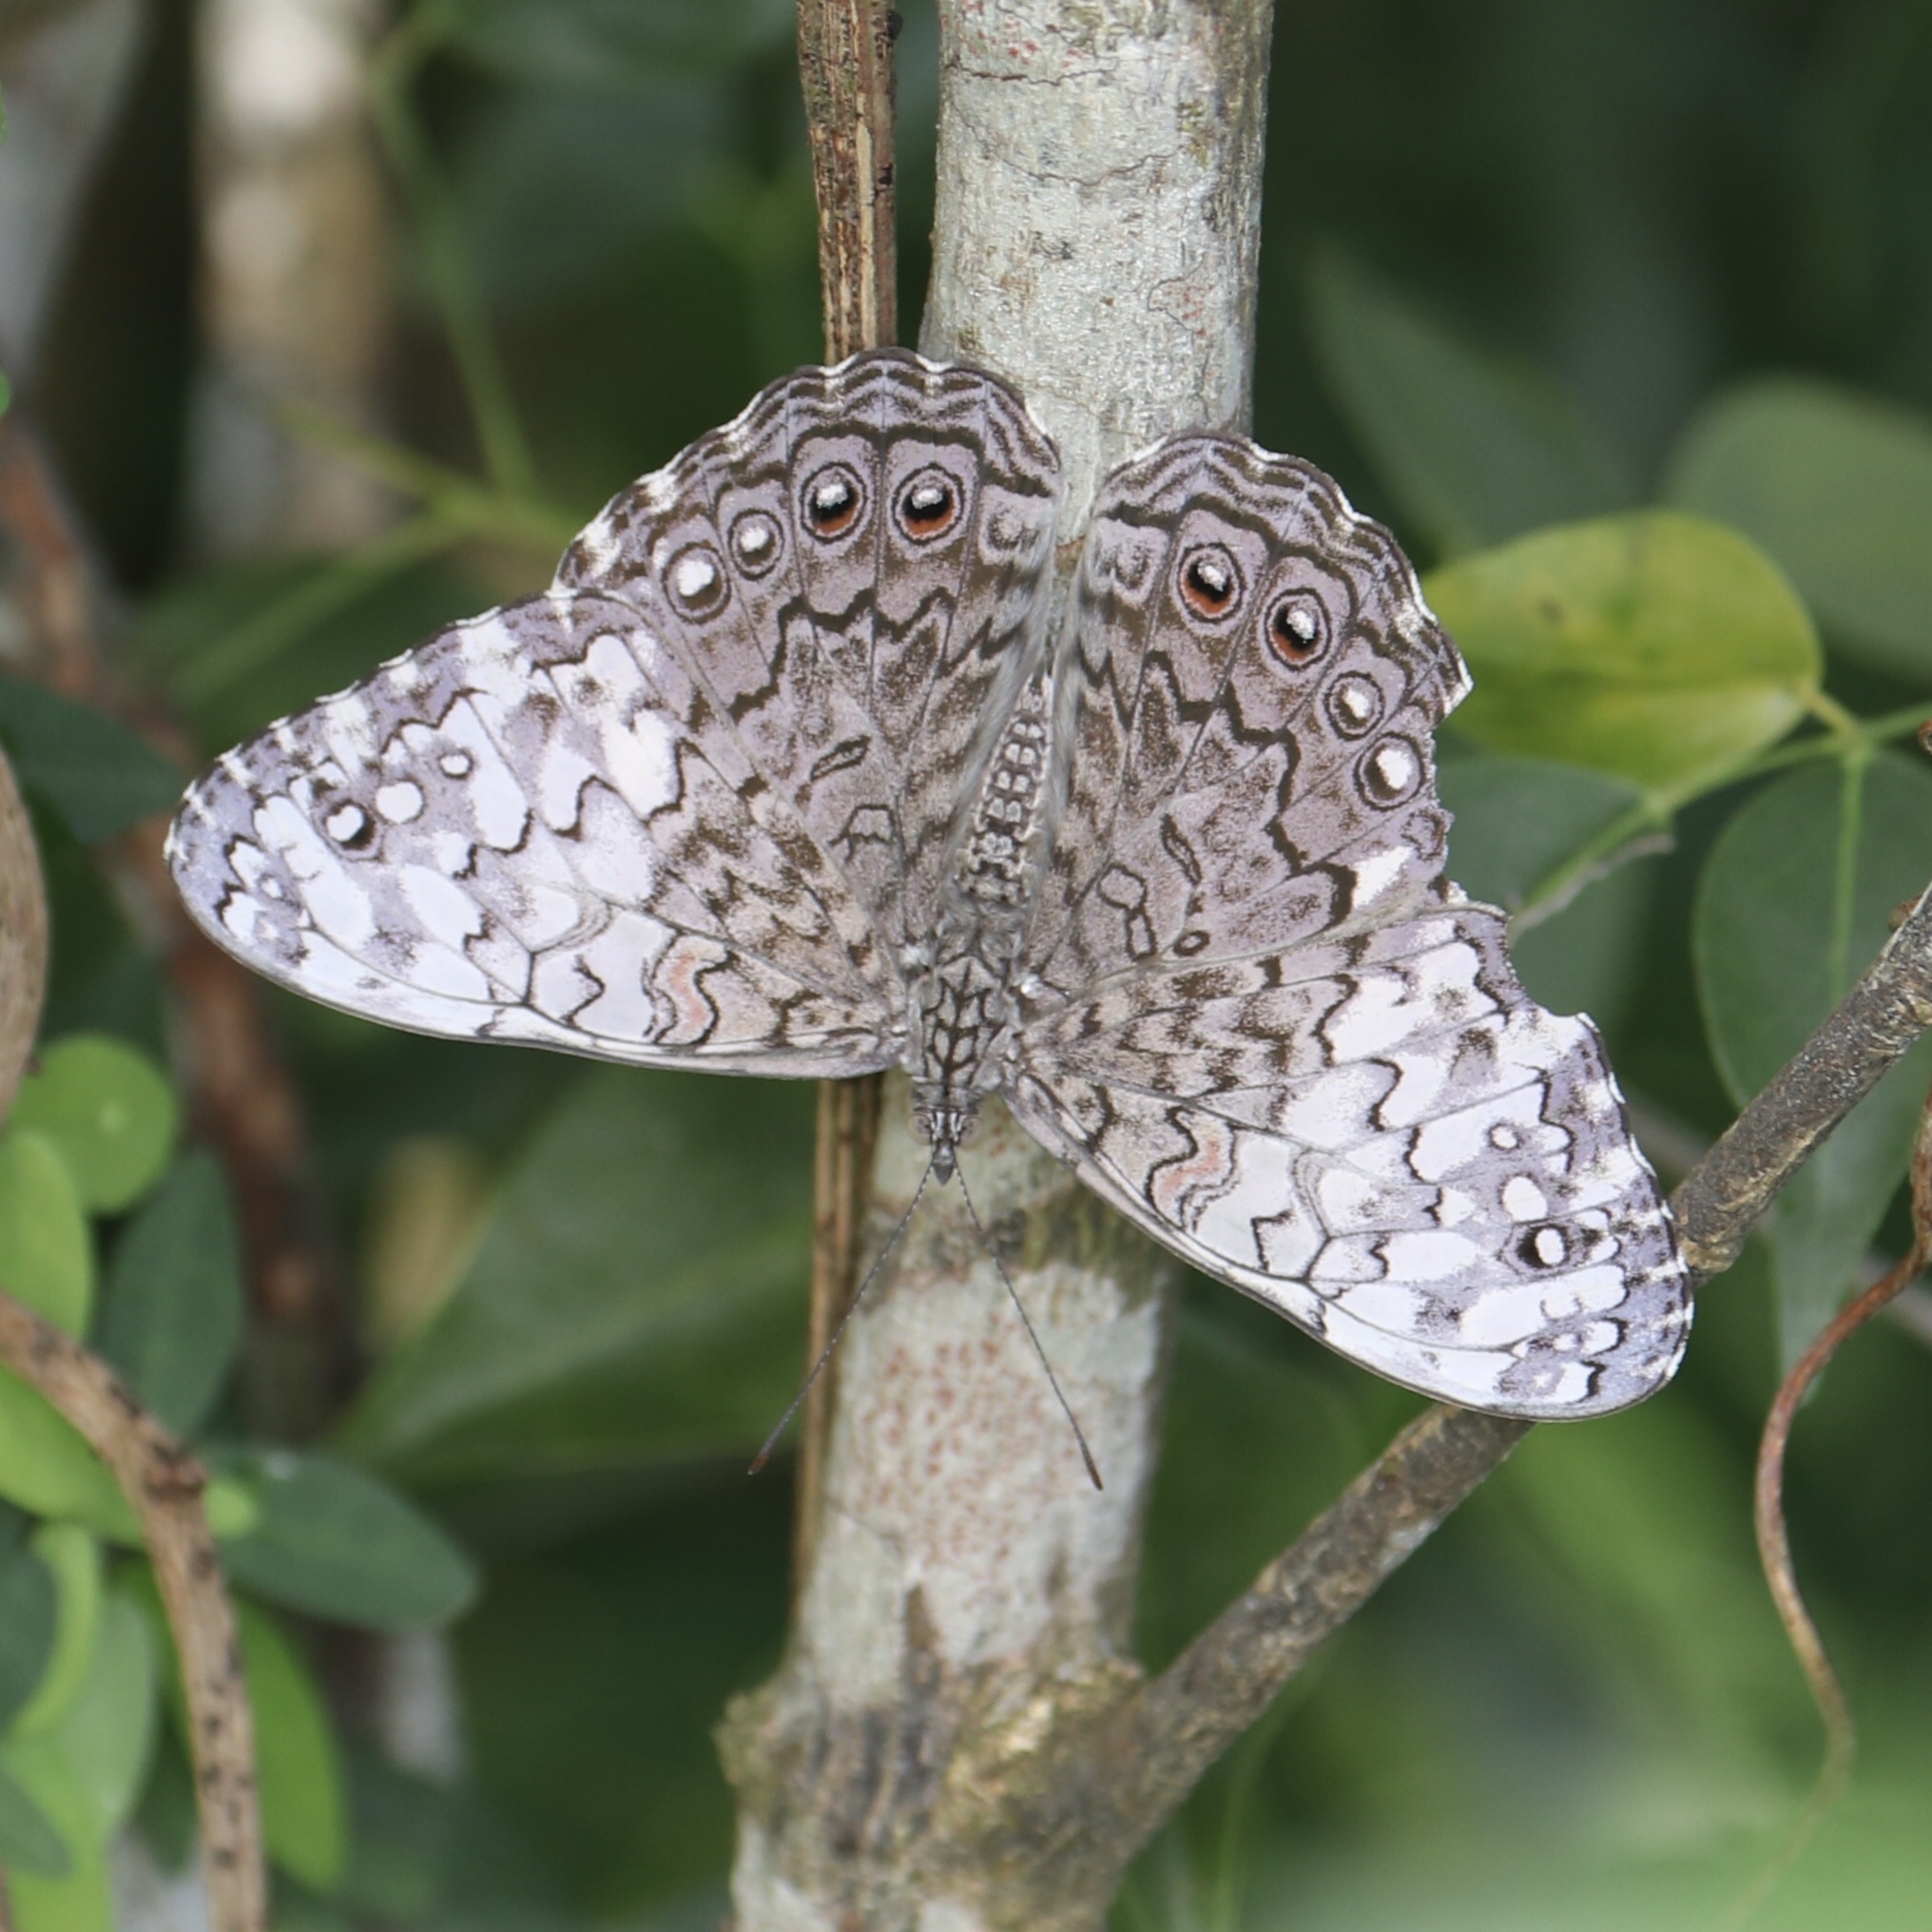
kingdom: Animalia
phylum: Arthropoda
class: Insecta
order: Lepidoptera
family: Nymphalidae
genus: Hamadryas
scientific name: Hamadryas februa
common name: Gray cracker
